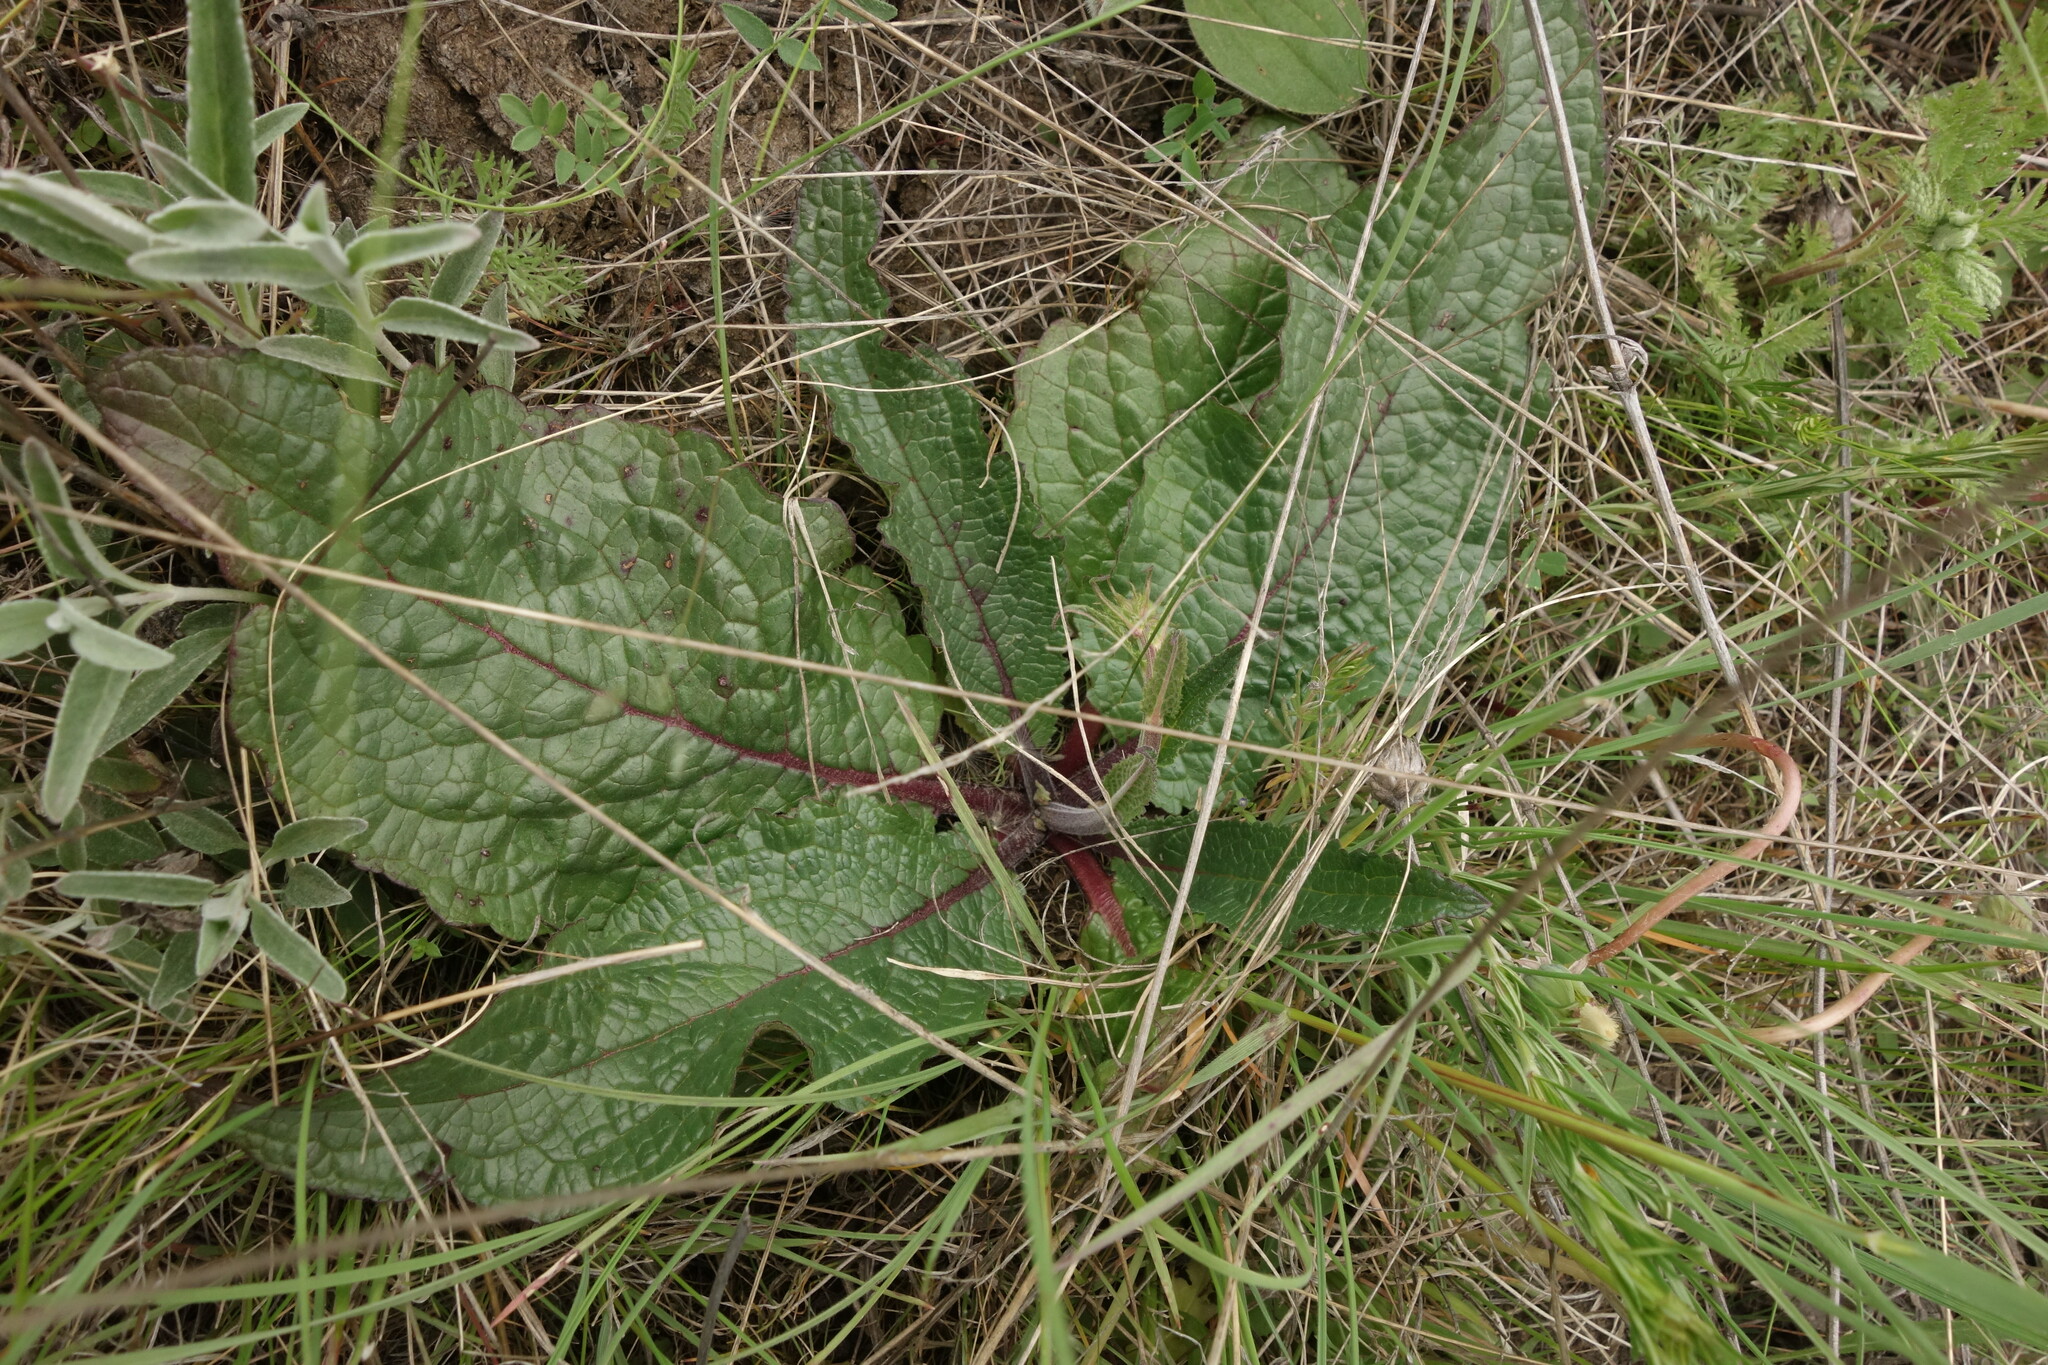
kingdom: Plantae
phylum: Tracheophyta
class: Magnoliopsida
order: Lamiales
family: Scrophulariaceae
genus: Verbascum
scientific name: Verbascum phoeniceum
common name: Purple mullein
